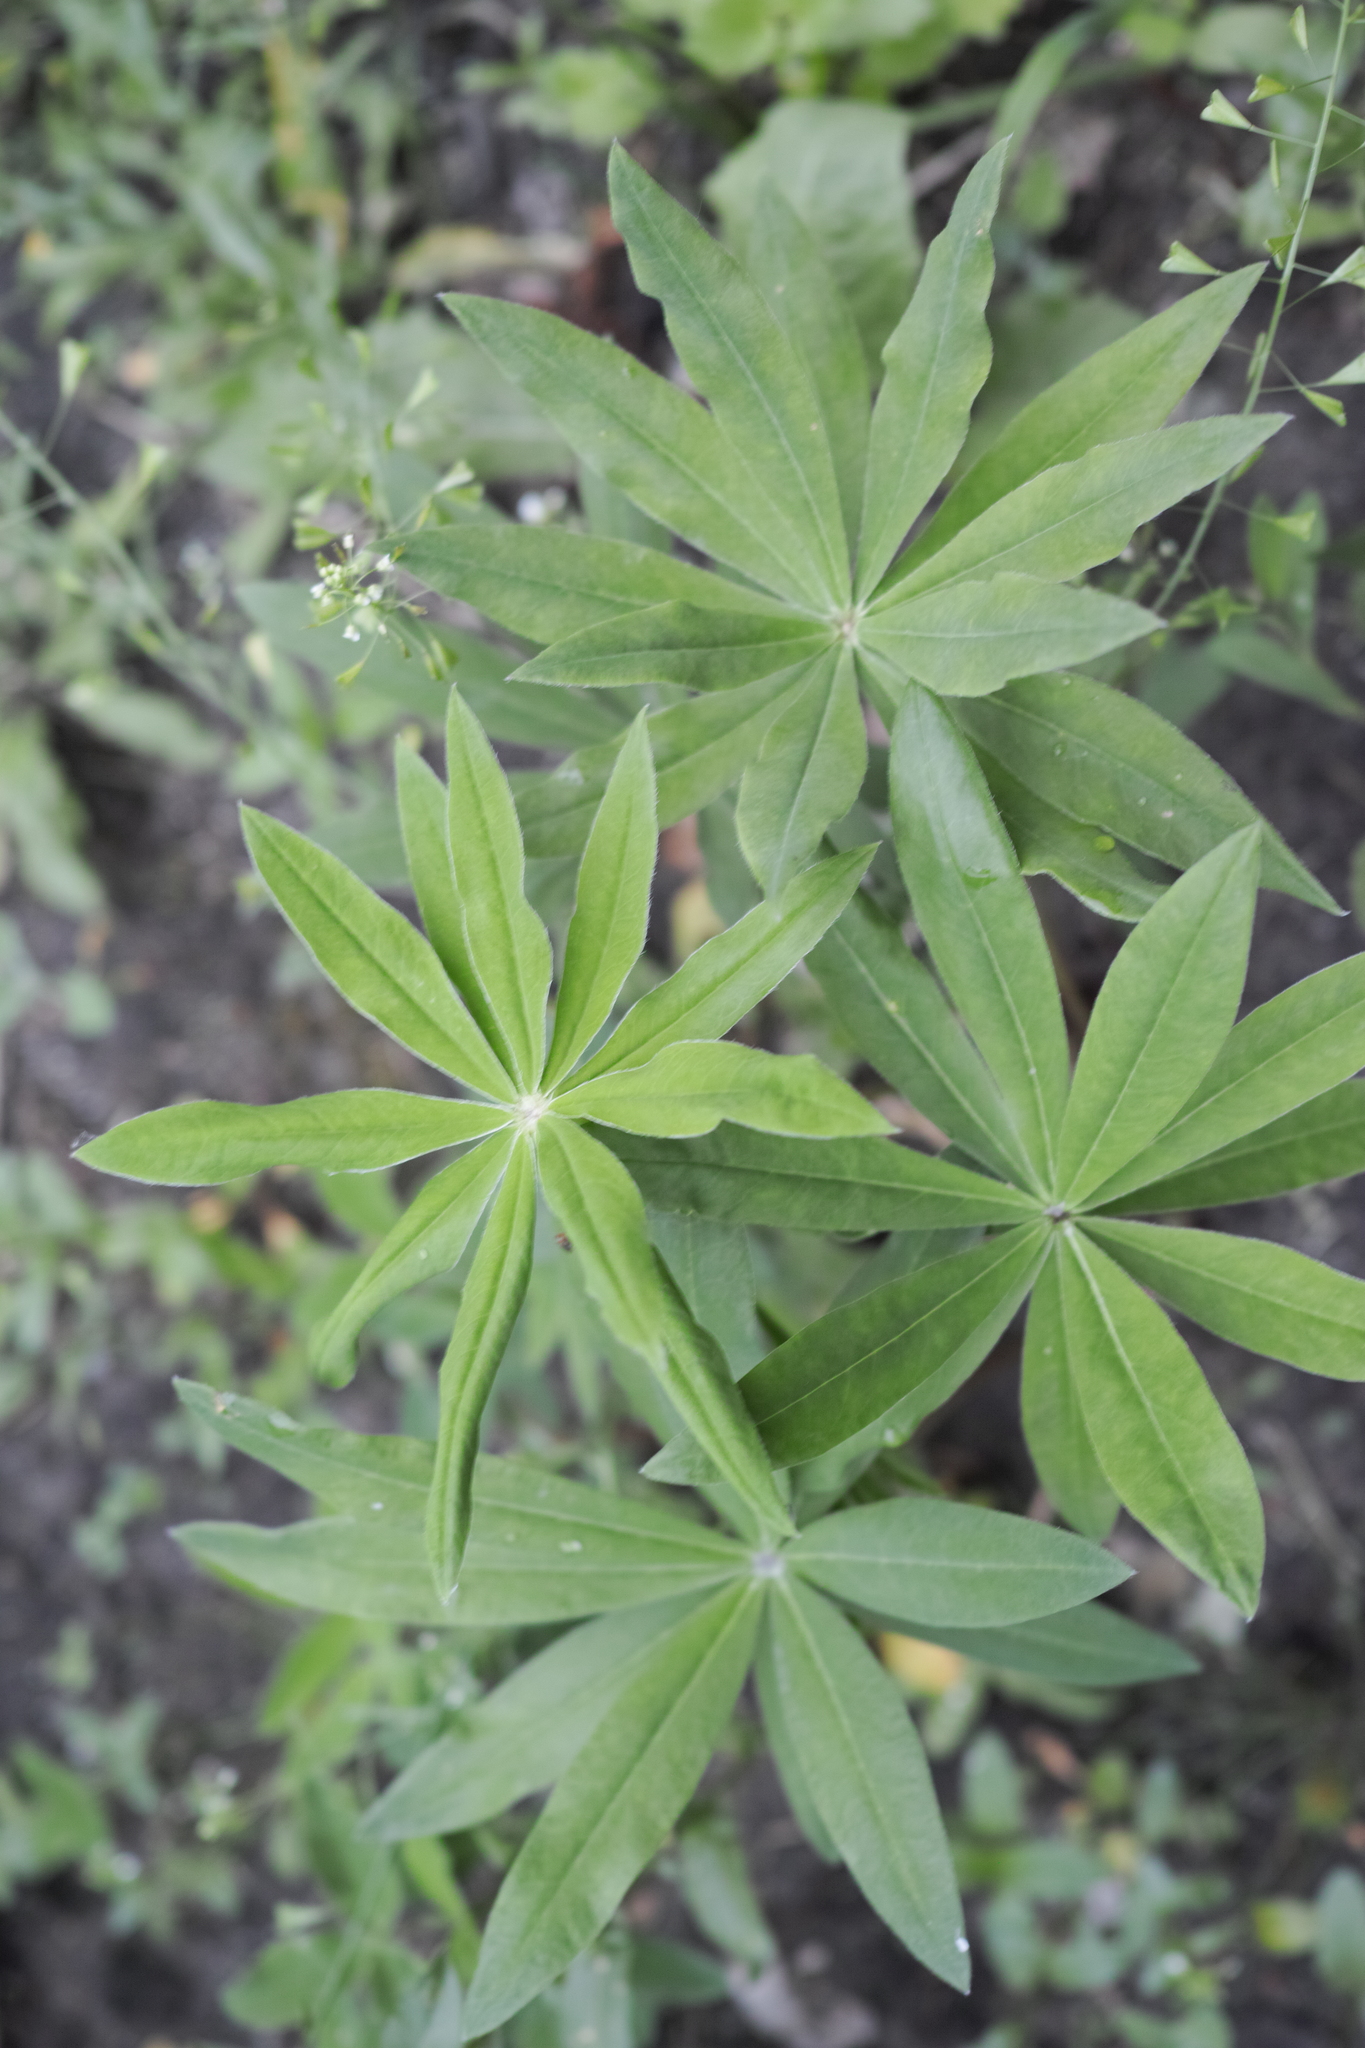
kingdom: Plantae
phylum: Tracheophyta
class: Magnoliopsida
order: Fabales
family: Fabaceae
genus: Lupinus
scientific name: Lupinus polyphyllus
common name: Garden lupin
